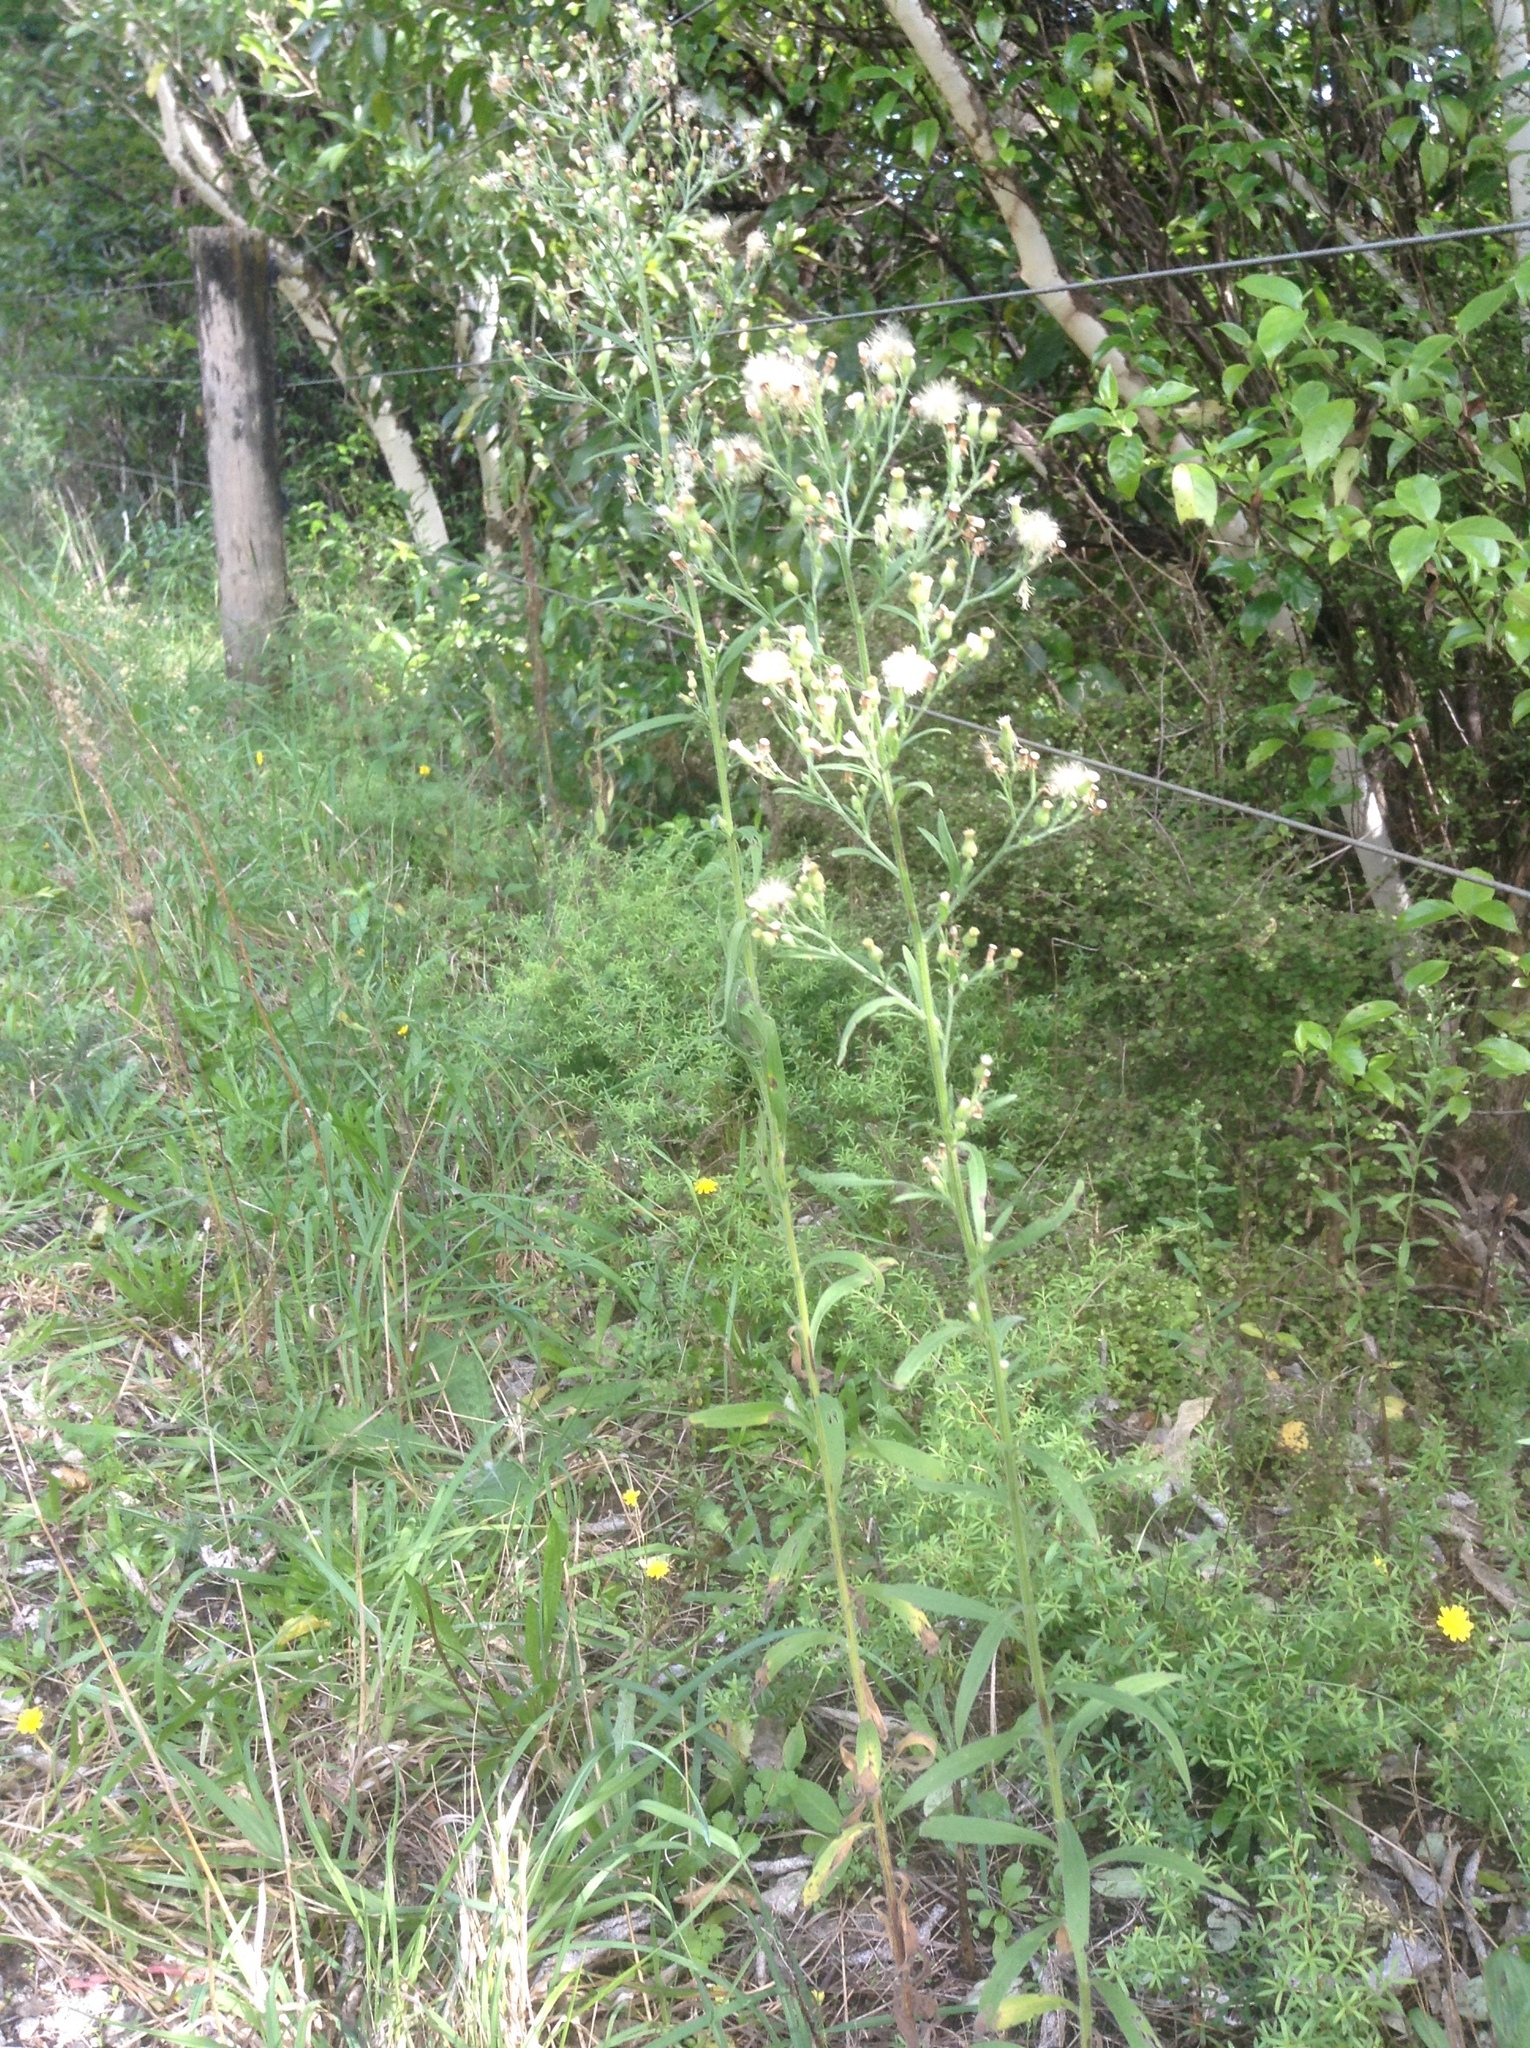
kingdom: Plantae
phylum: Tracheophyta
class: Magnoliopsida
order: Asterales
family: Asteraceae
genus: Erigeron
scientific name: Erigeron sumatrensis
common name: Daisy
